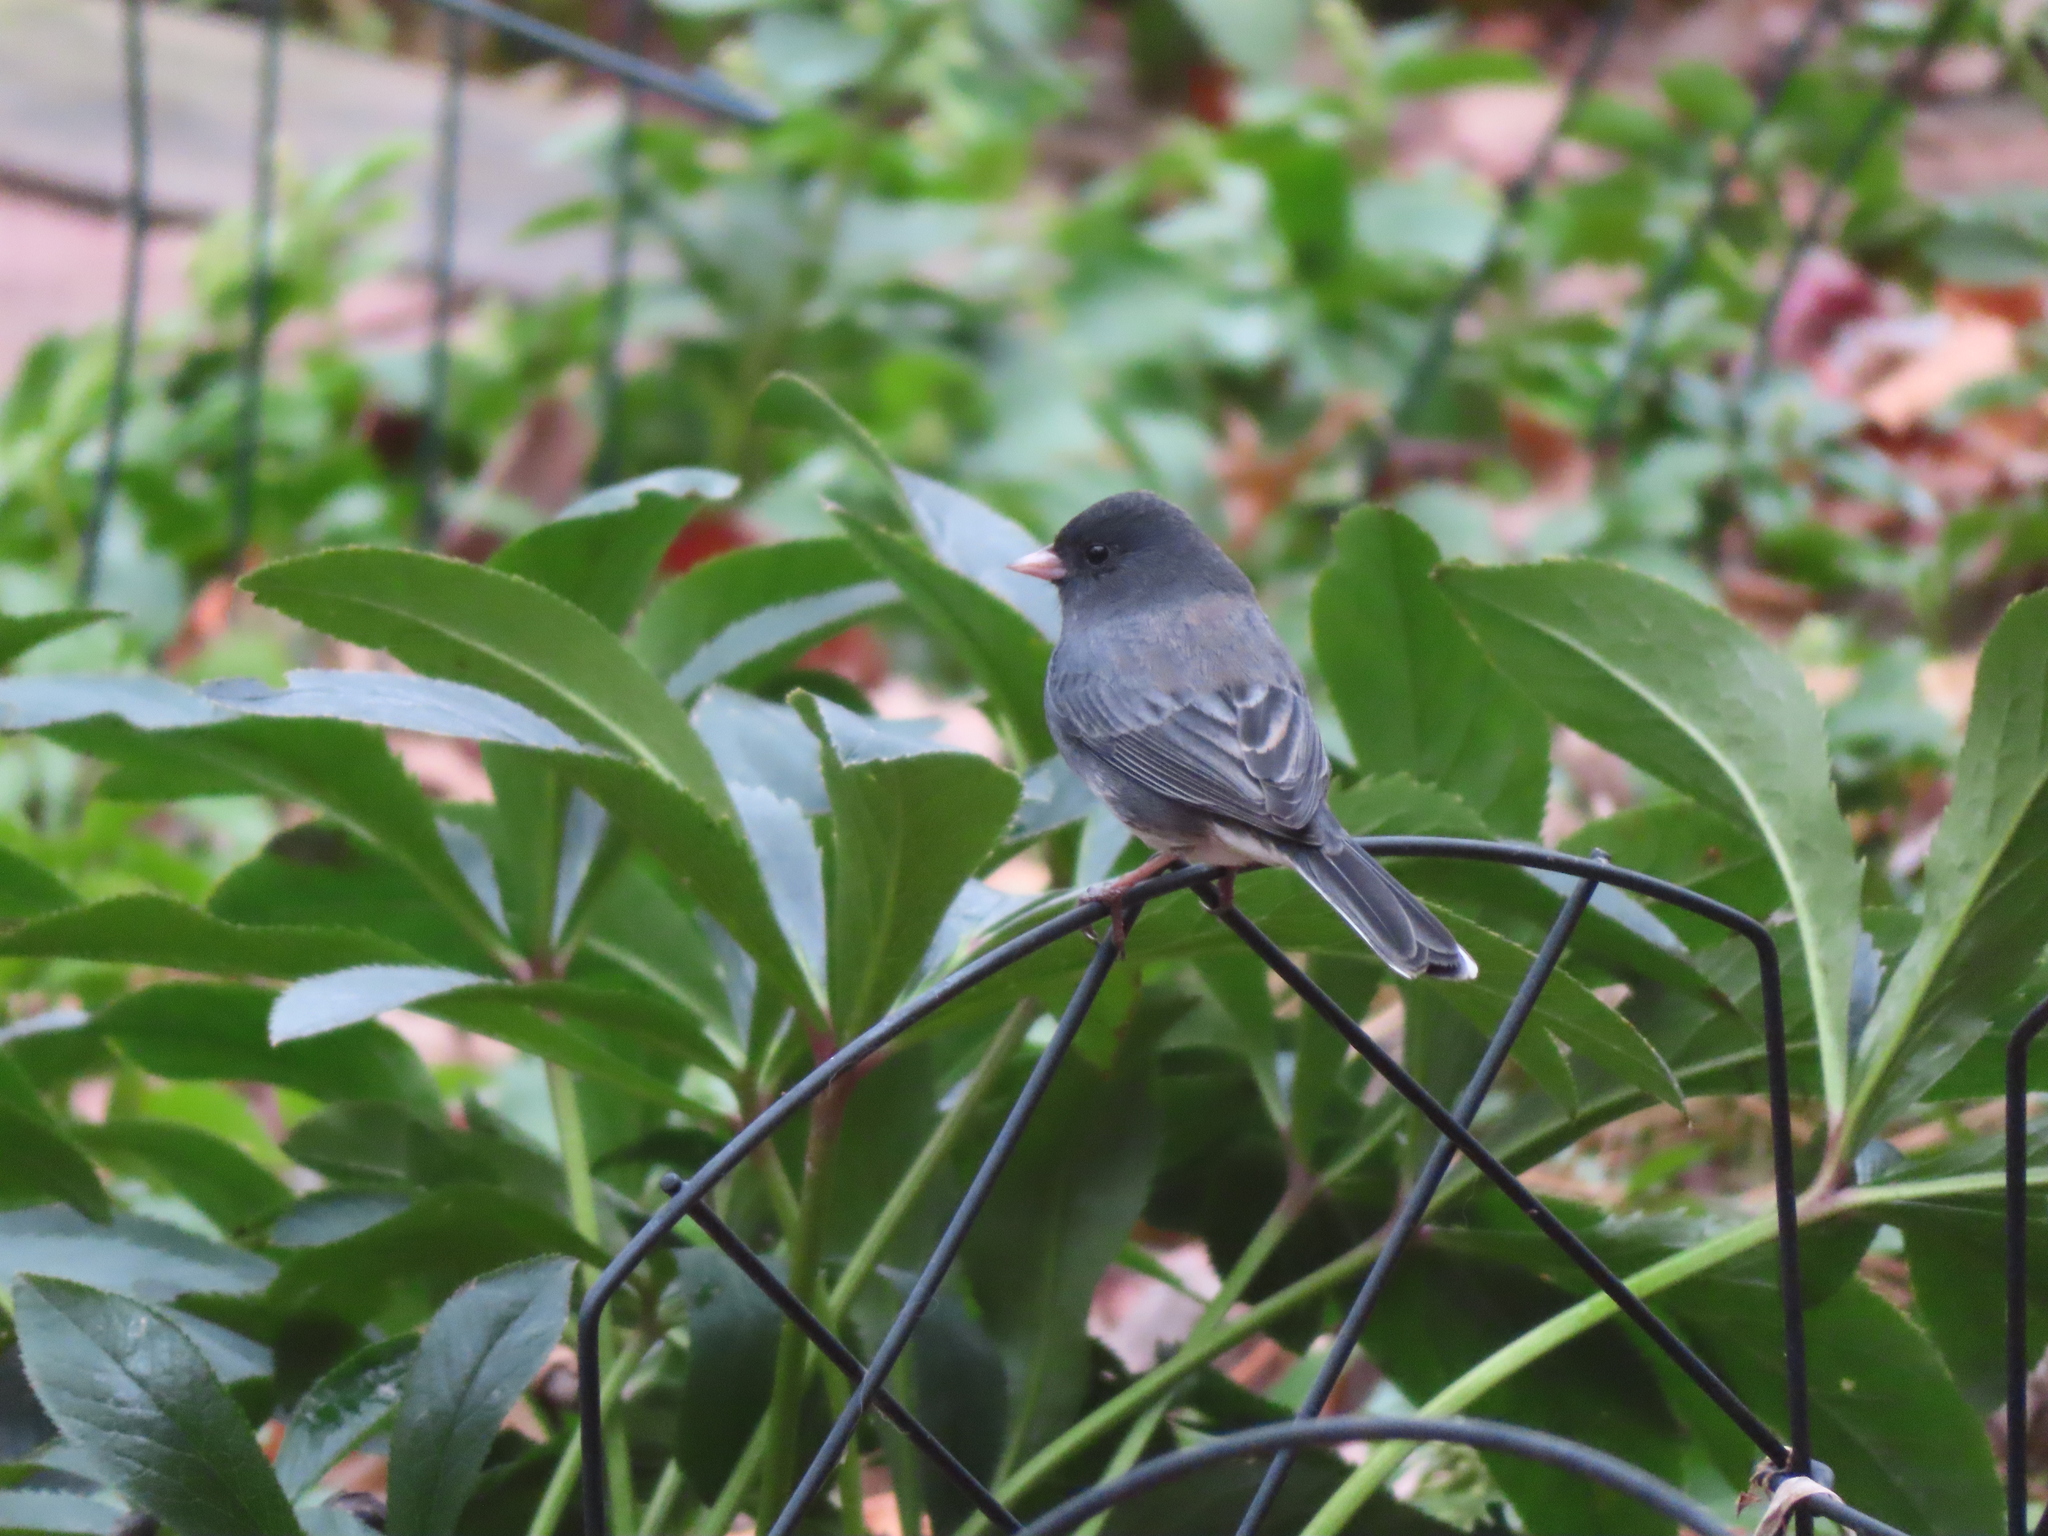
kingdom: Animalia
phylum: Chordata
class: Aves
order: Passeriformes
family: Passerellidae
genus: Junco
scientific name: Junco hyemalis
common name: Dark-eyed junco
